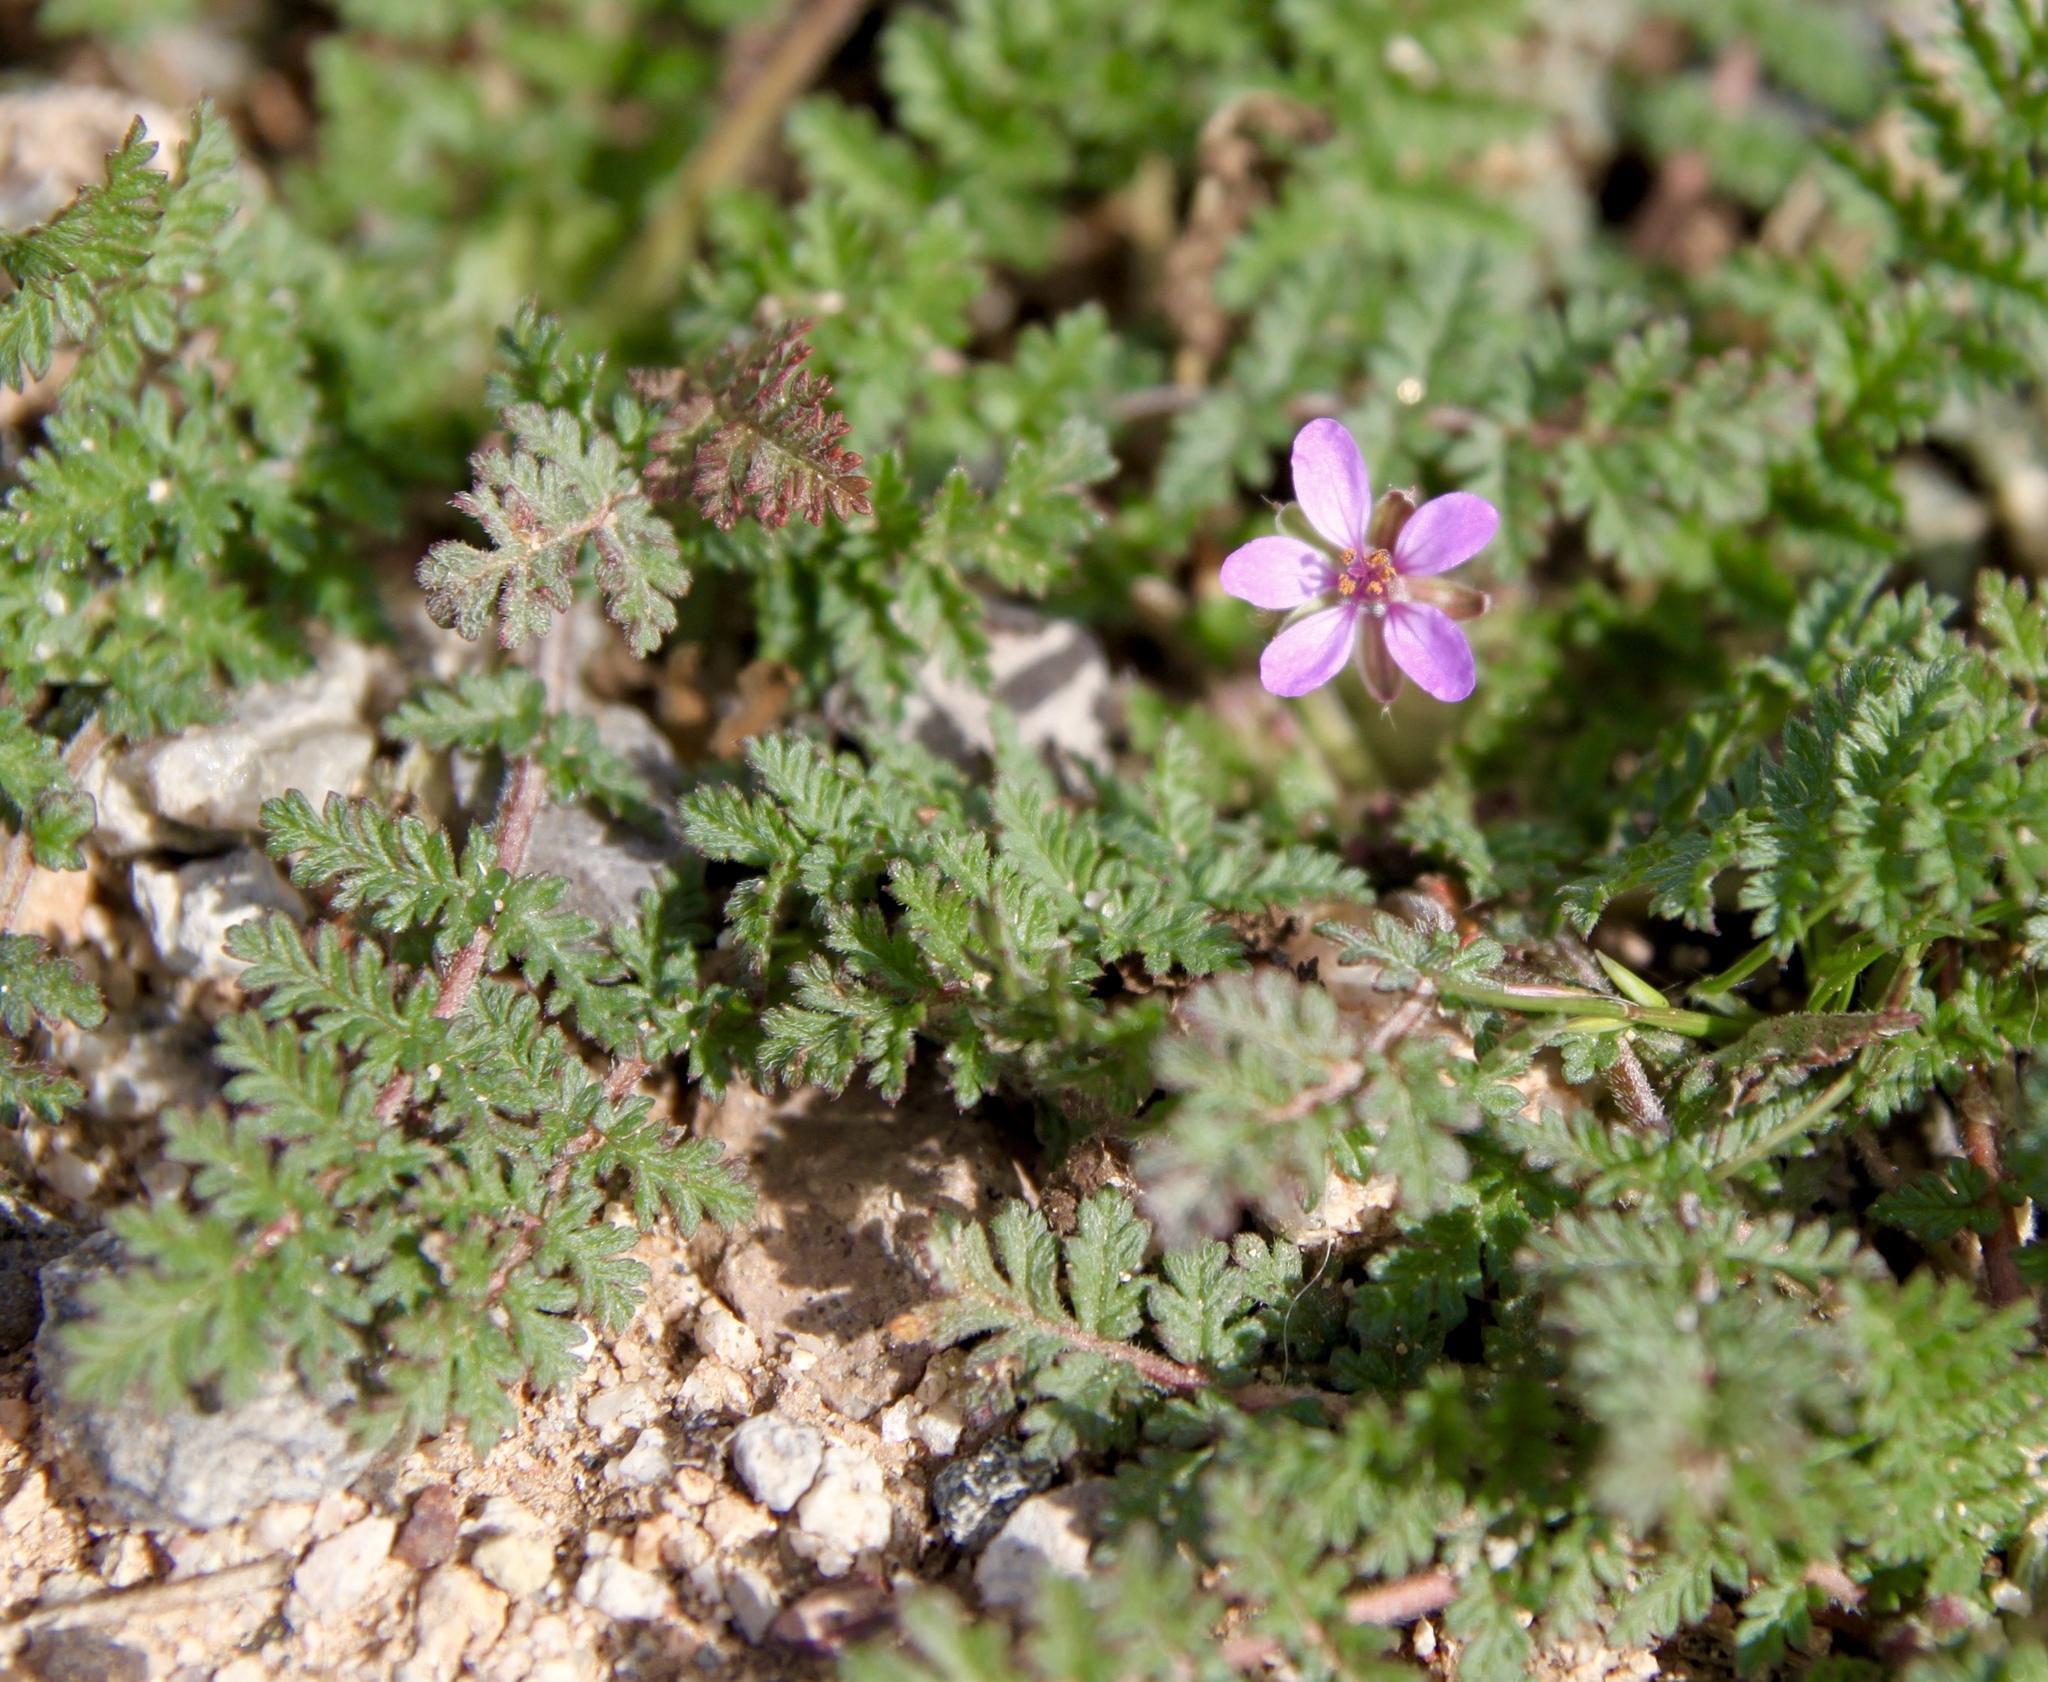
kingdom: Plantae
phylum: Tracheophyta
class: Magnoliopsida
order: Geraniales
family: Geraniaceae
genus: Erodium
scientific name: Erodium cicutarium
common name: Common stork's-bill
